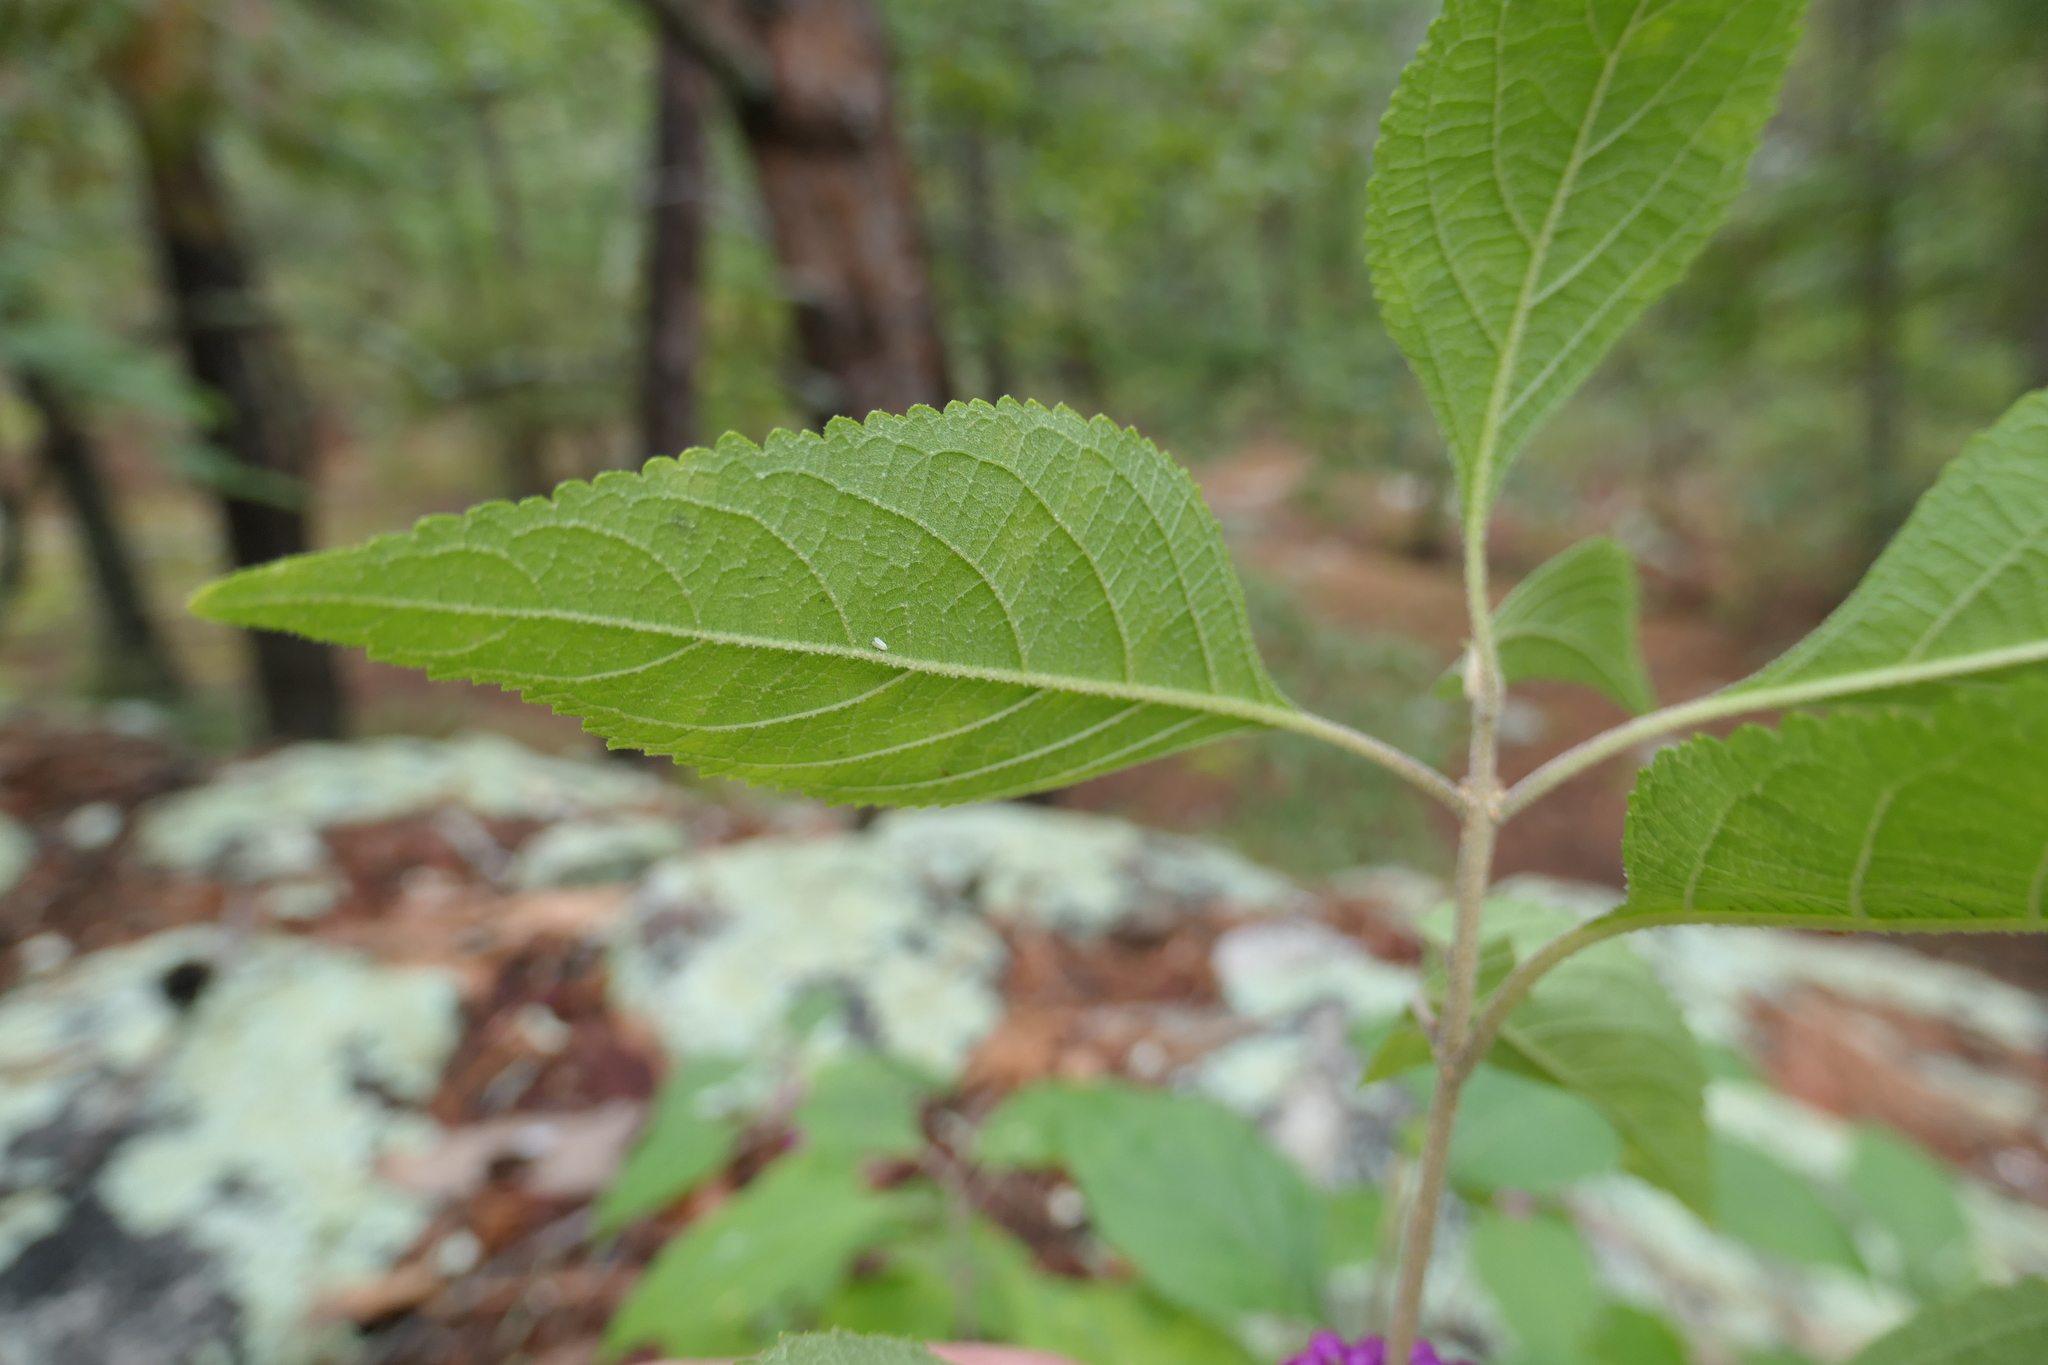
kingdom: Plantae
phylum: Tracheophyta
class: Magnoliopsida
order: Lamiales
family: Lamiaceae
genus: Callicarpa
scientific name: Callicarpa americana
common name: American beautyberry
